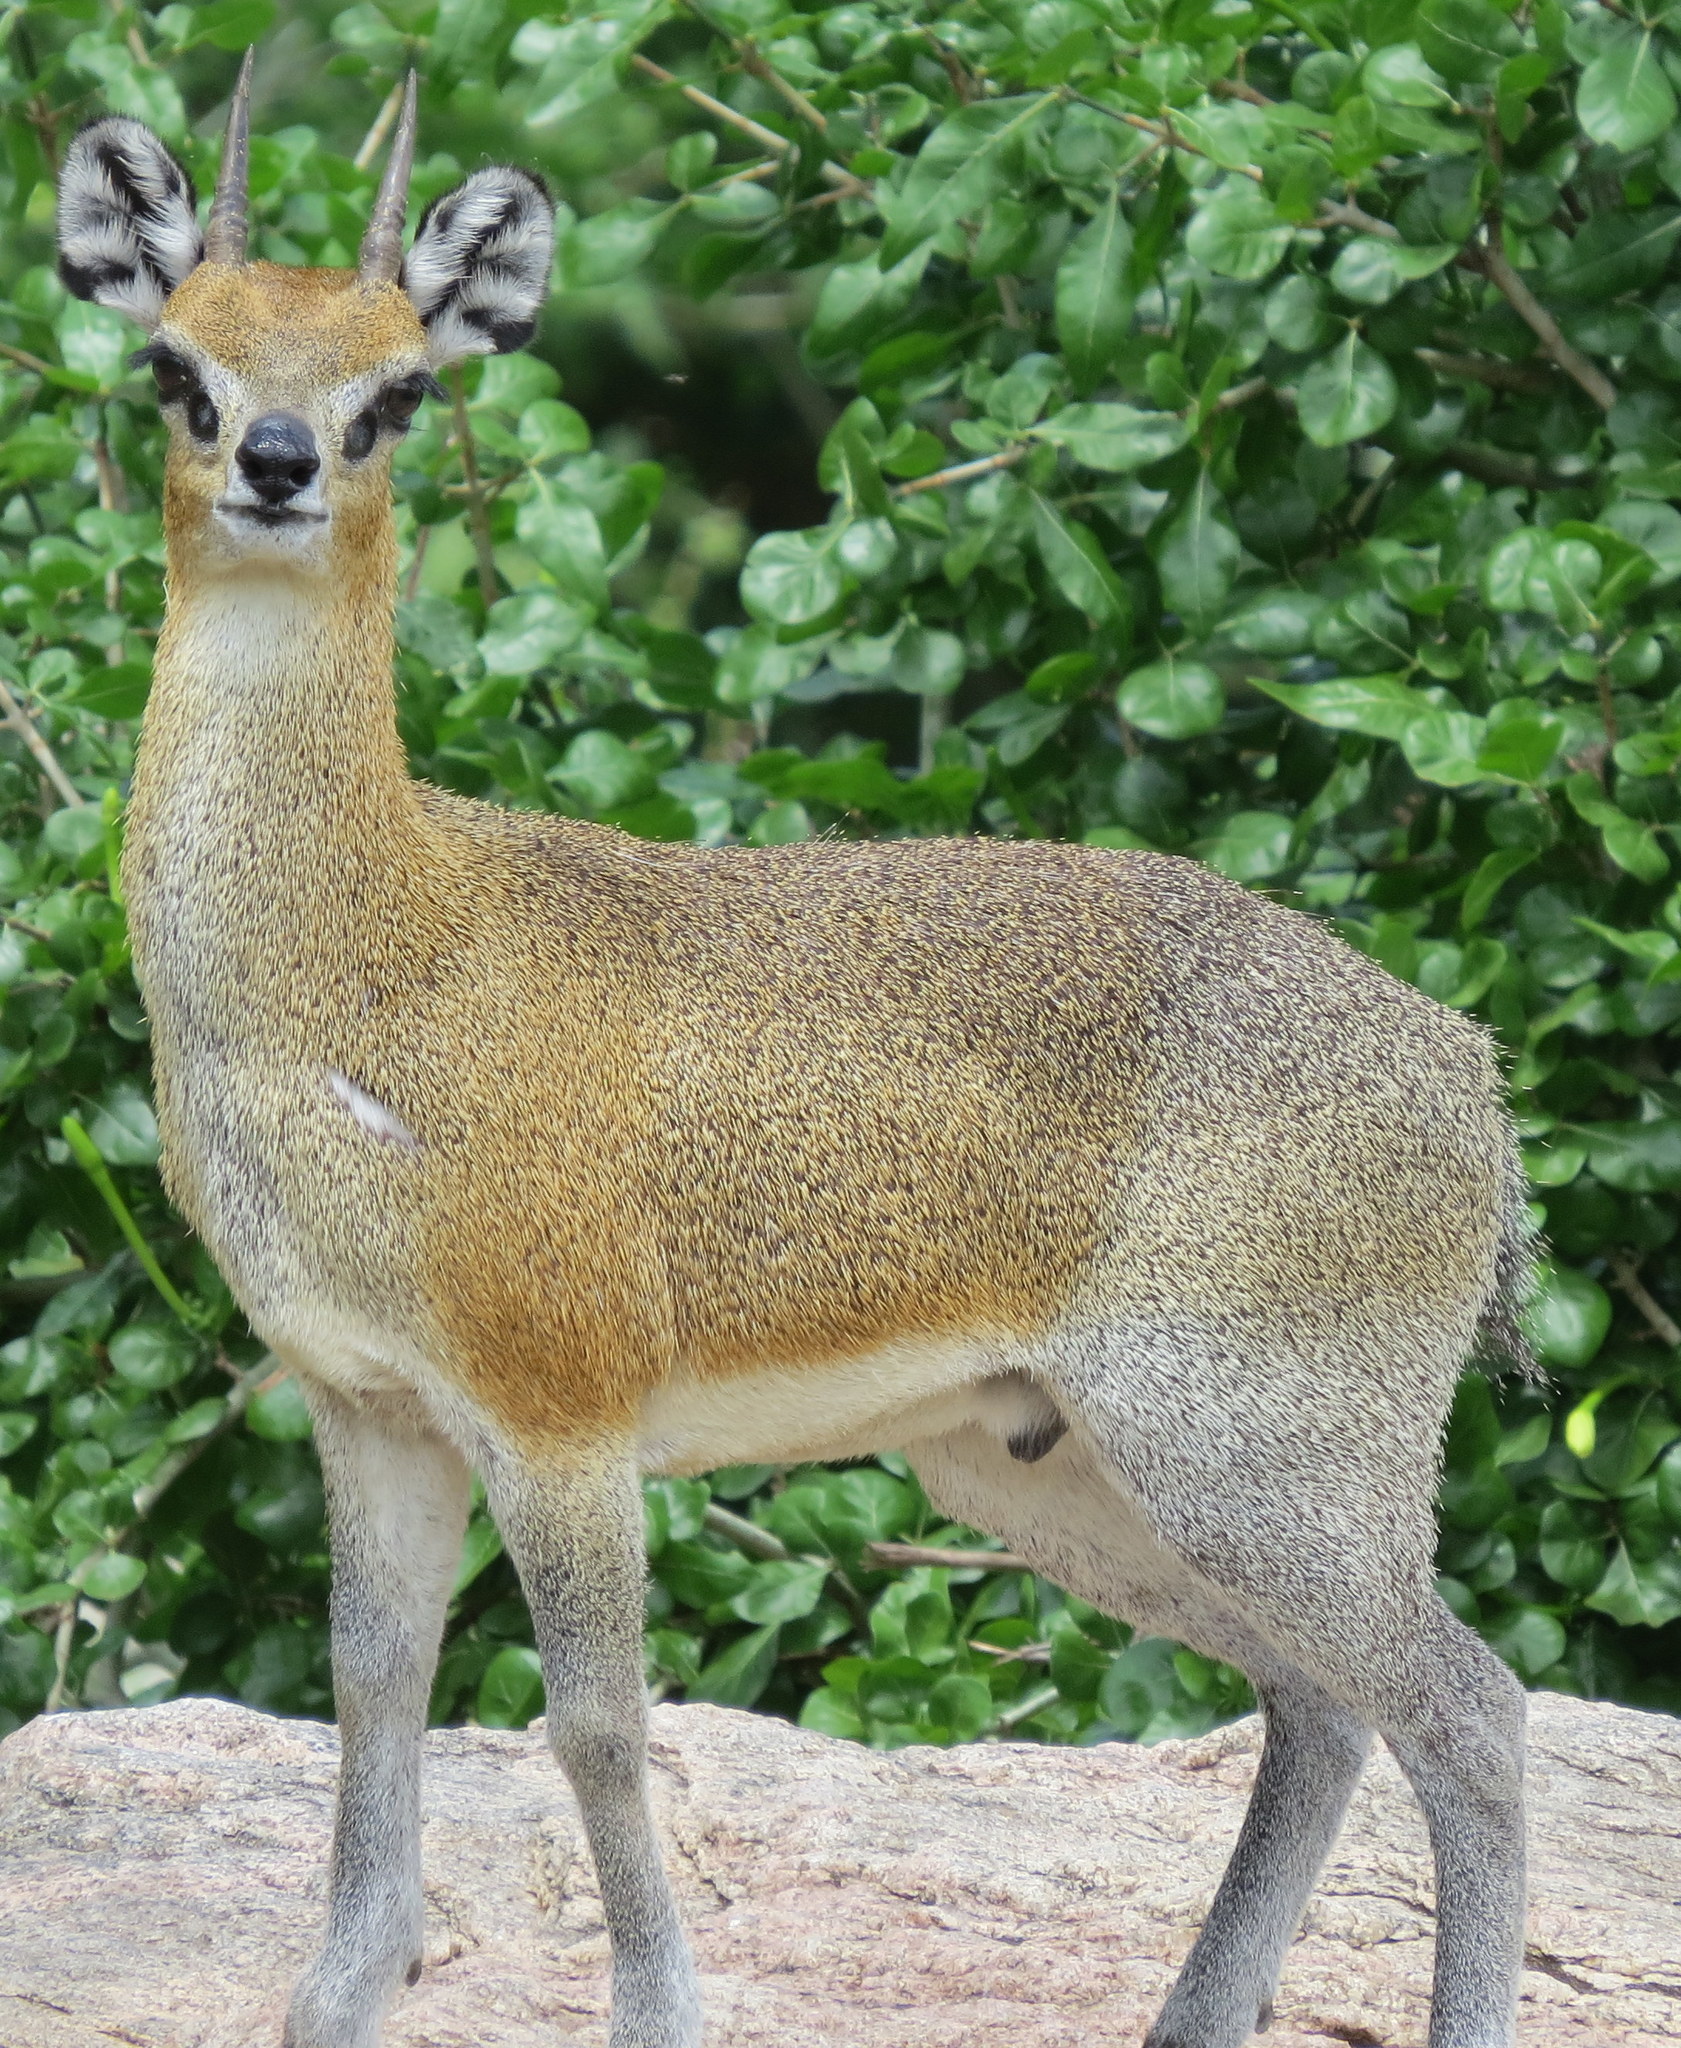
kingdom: Animalia
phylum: Chordata
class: Mammalia
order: Artiodactyla
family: Bovidae
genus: Oreotragus
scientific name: Oreotragus oreotragus
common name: Klipspringer
